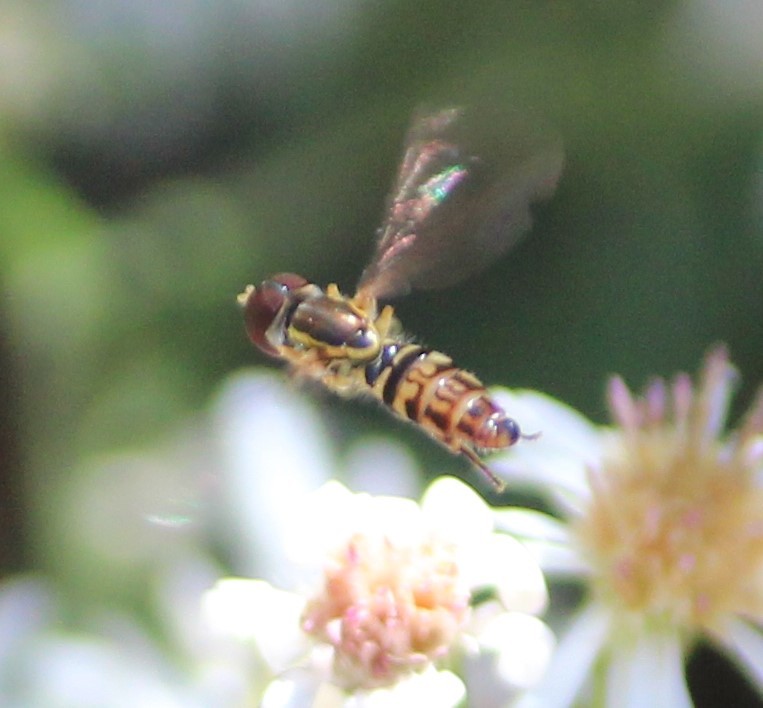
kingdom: Animalia
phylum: Arthropoda
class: Insecta
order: Diptera
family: Syrphidae
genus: Toxomerus
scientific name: Toxomerus geminatus
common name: Eastern calligrapher
